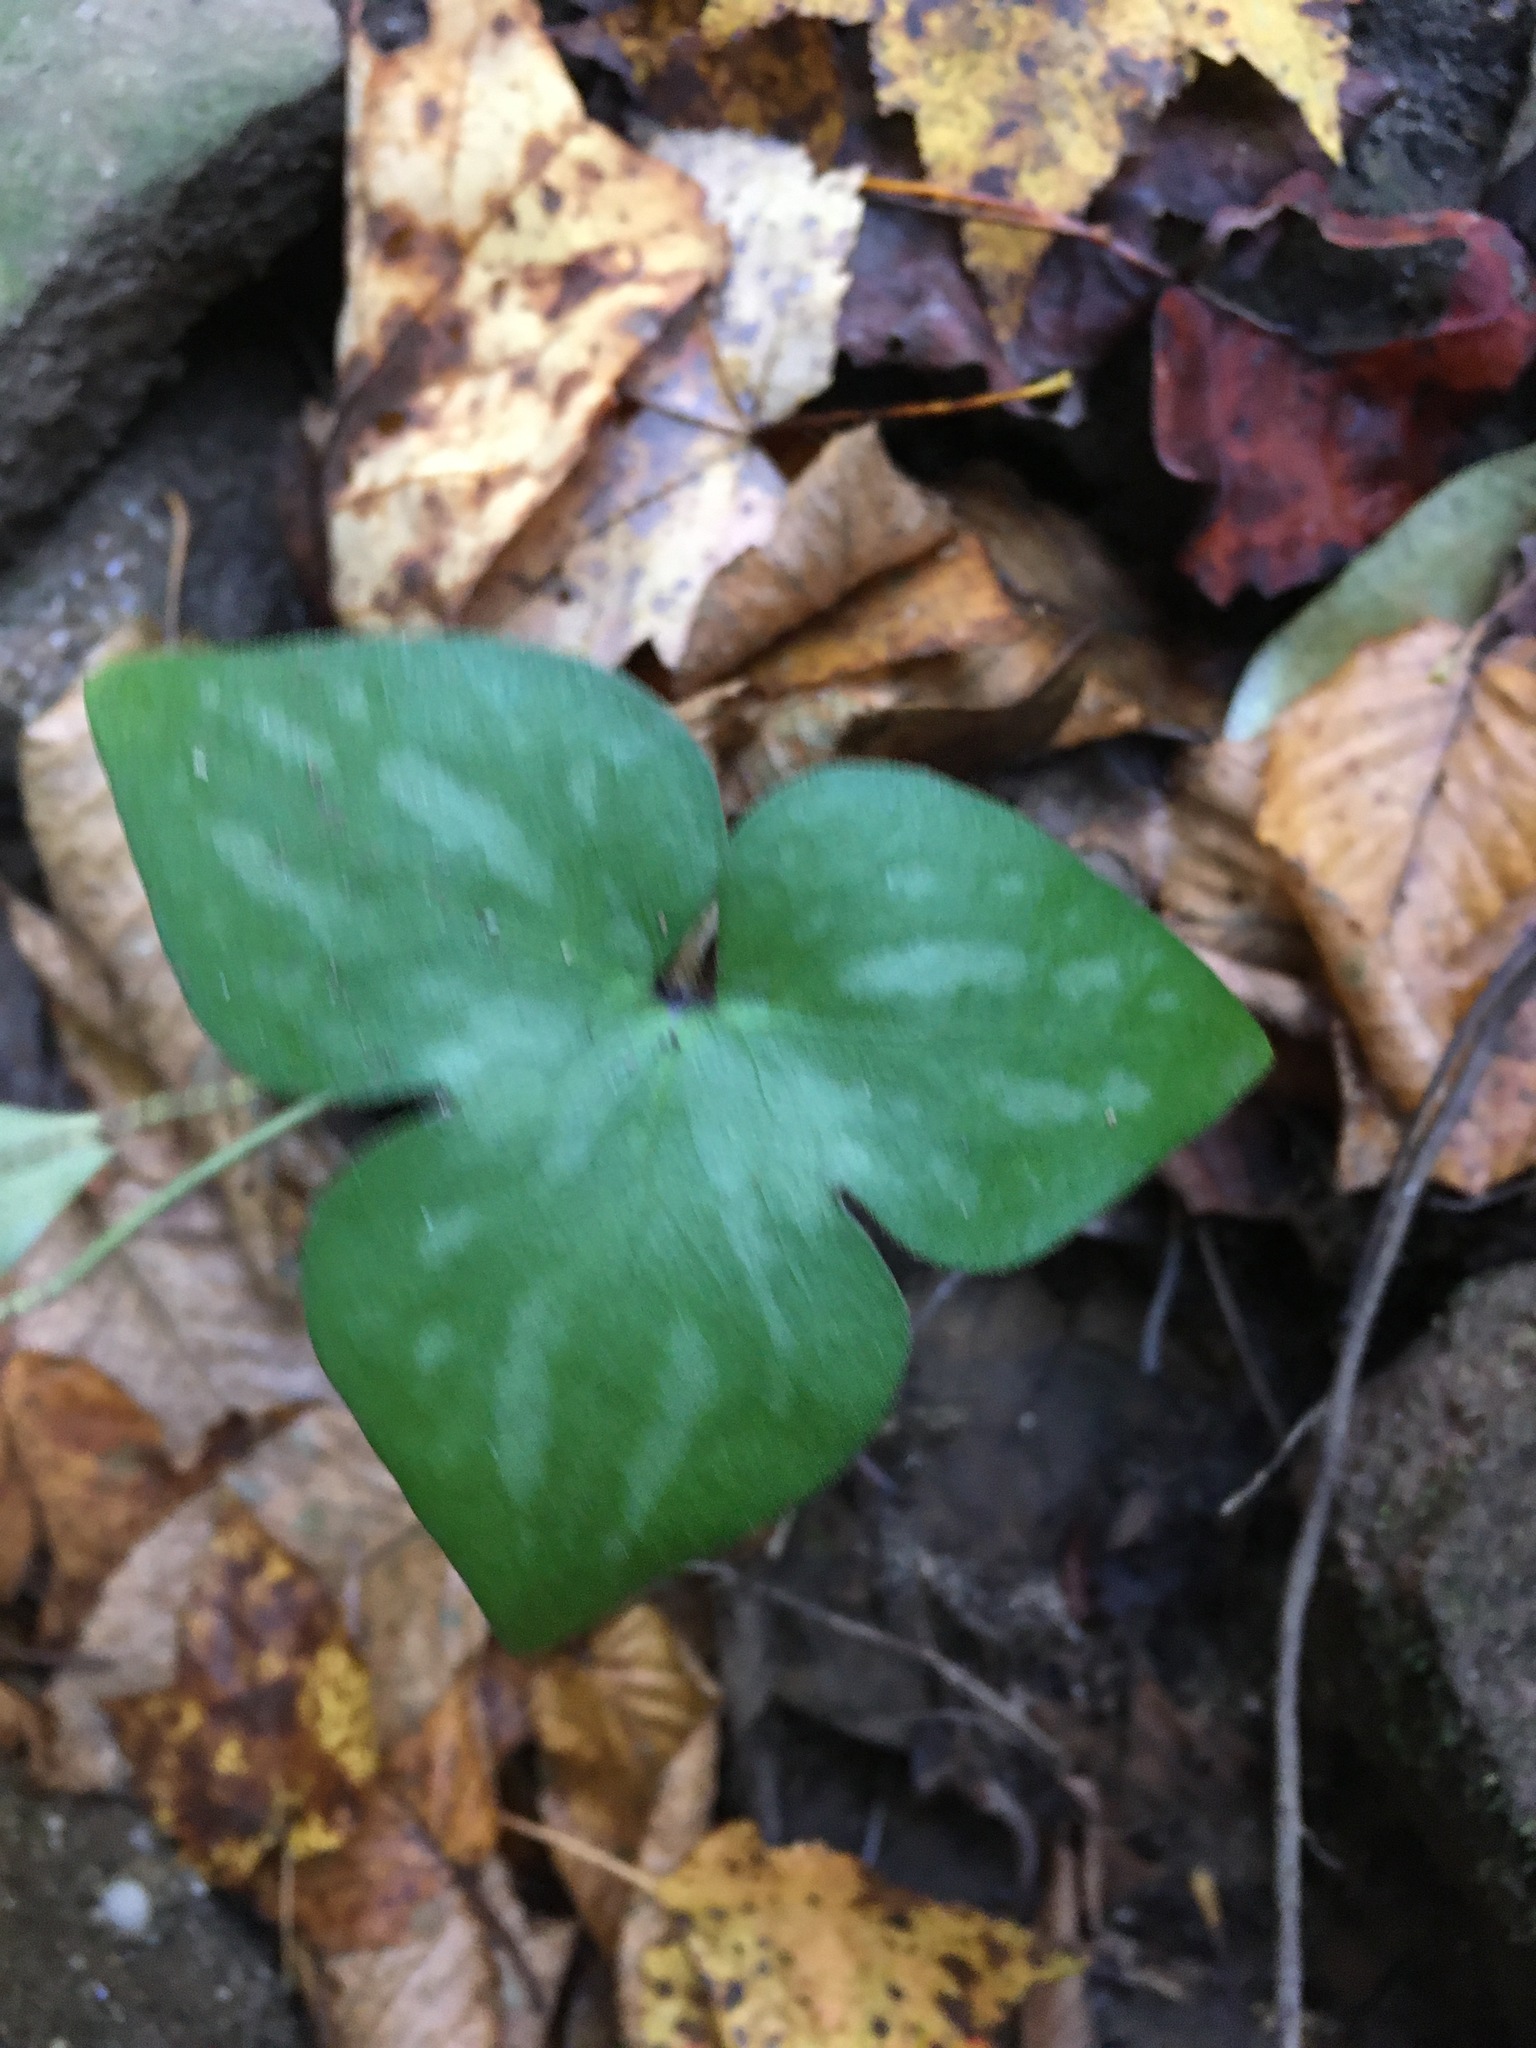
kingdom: Plantae
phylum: Tracheophyta
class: Magnoliopsida
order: Ranunculales
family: Ranunculaceae
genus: Hepatica
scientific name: Hepatica acutiloba
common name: Sharp-lobed hepatica
